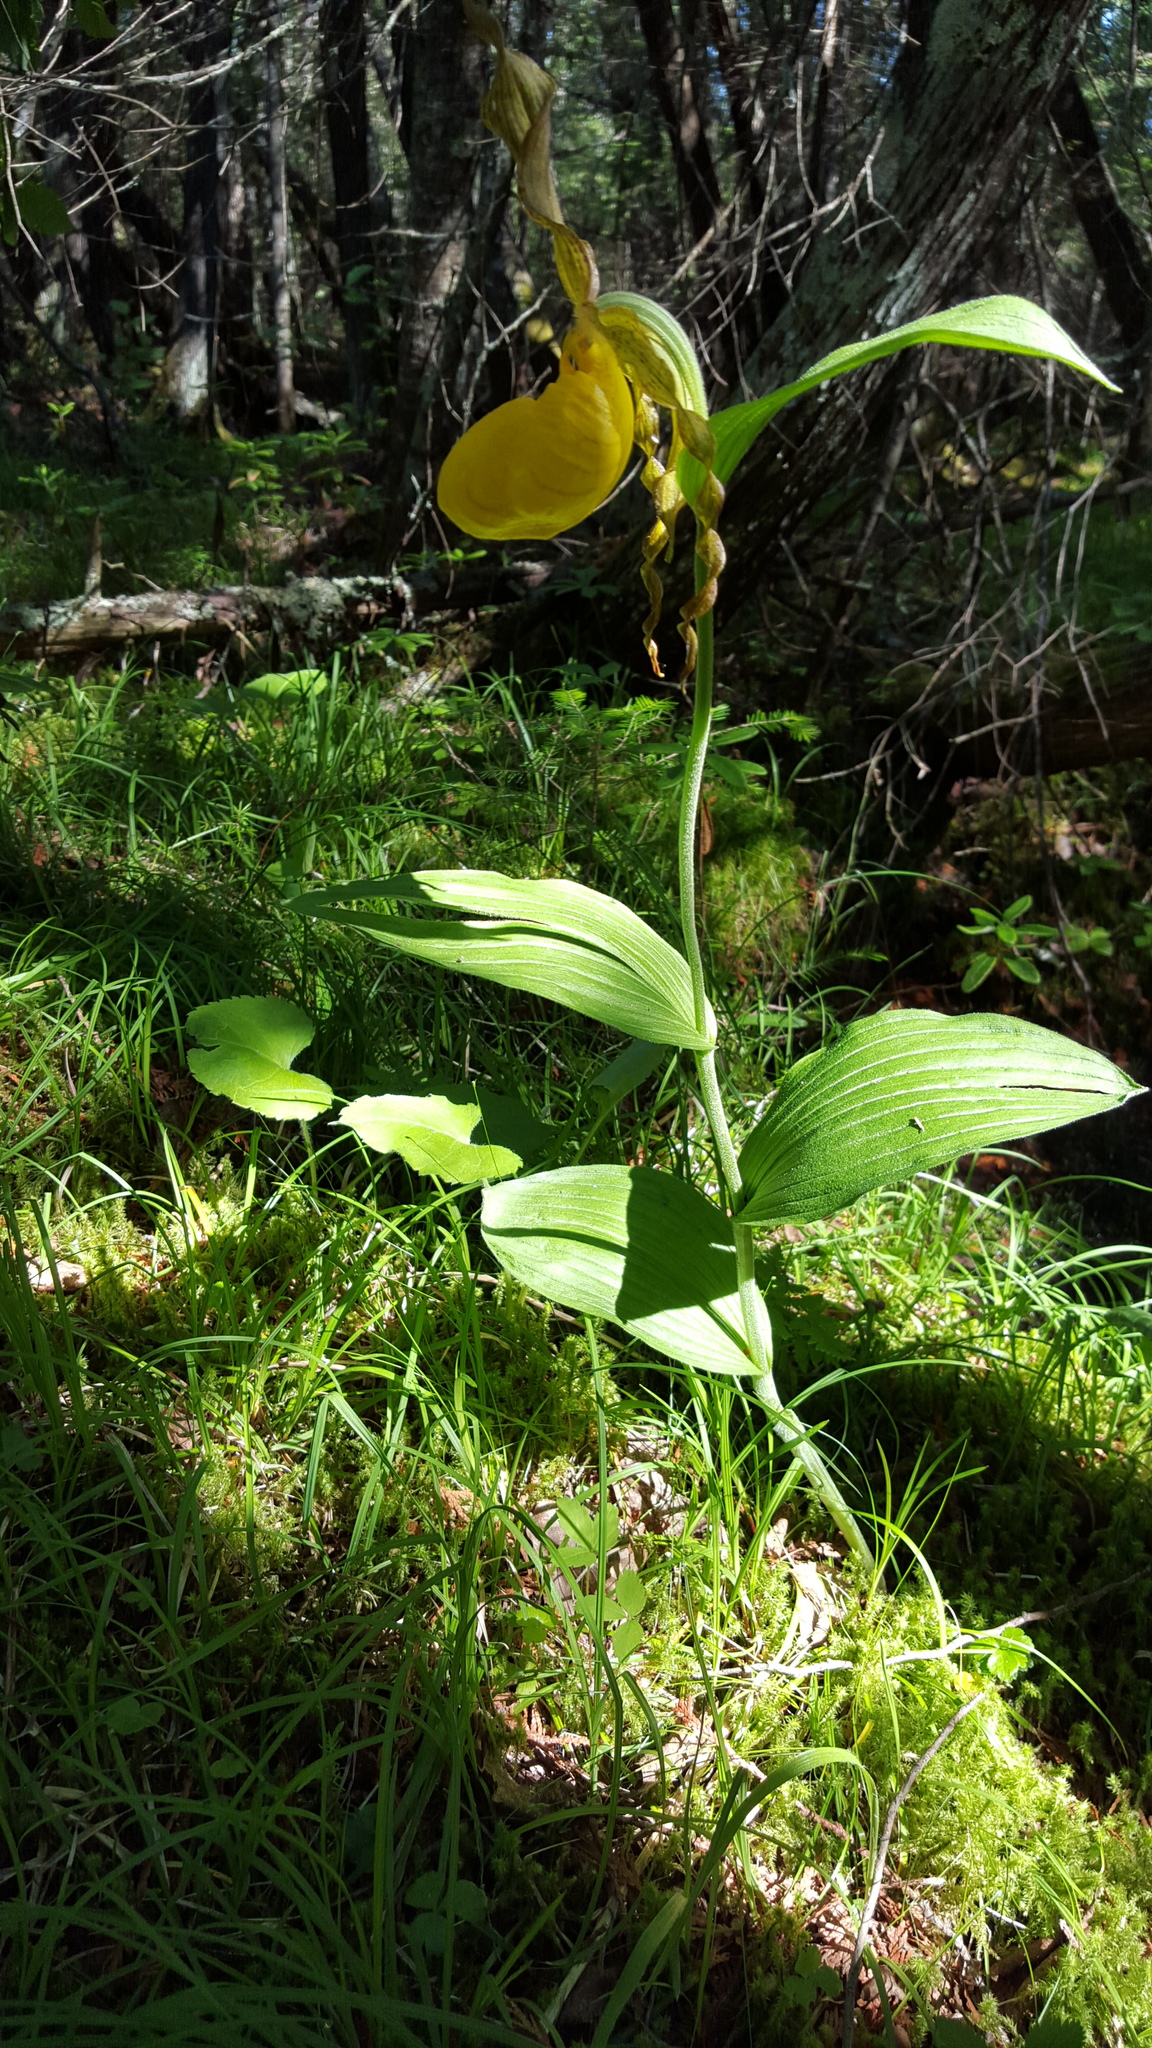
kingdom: Plantae
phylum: Tracheophyta
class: Liliopsida
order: Asparagales
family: Orchidaceae
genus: Cypripedium
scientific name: Cypripedium parviflorum
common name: American yellow lady's-slipper
